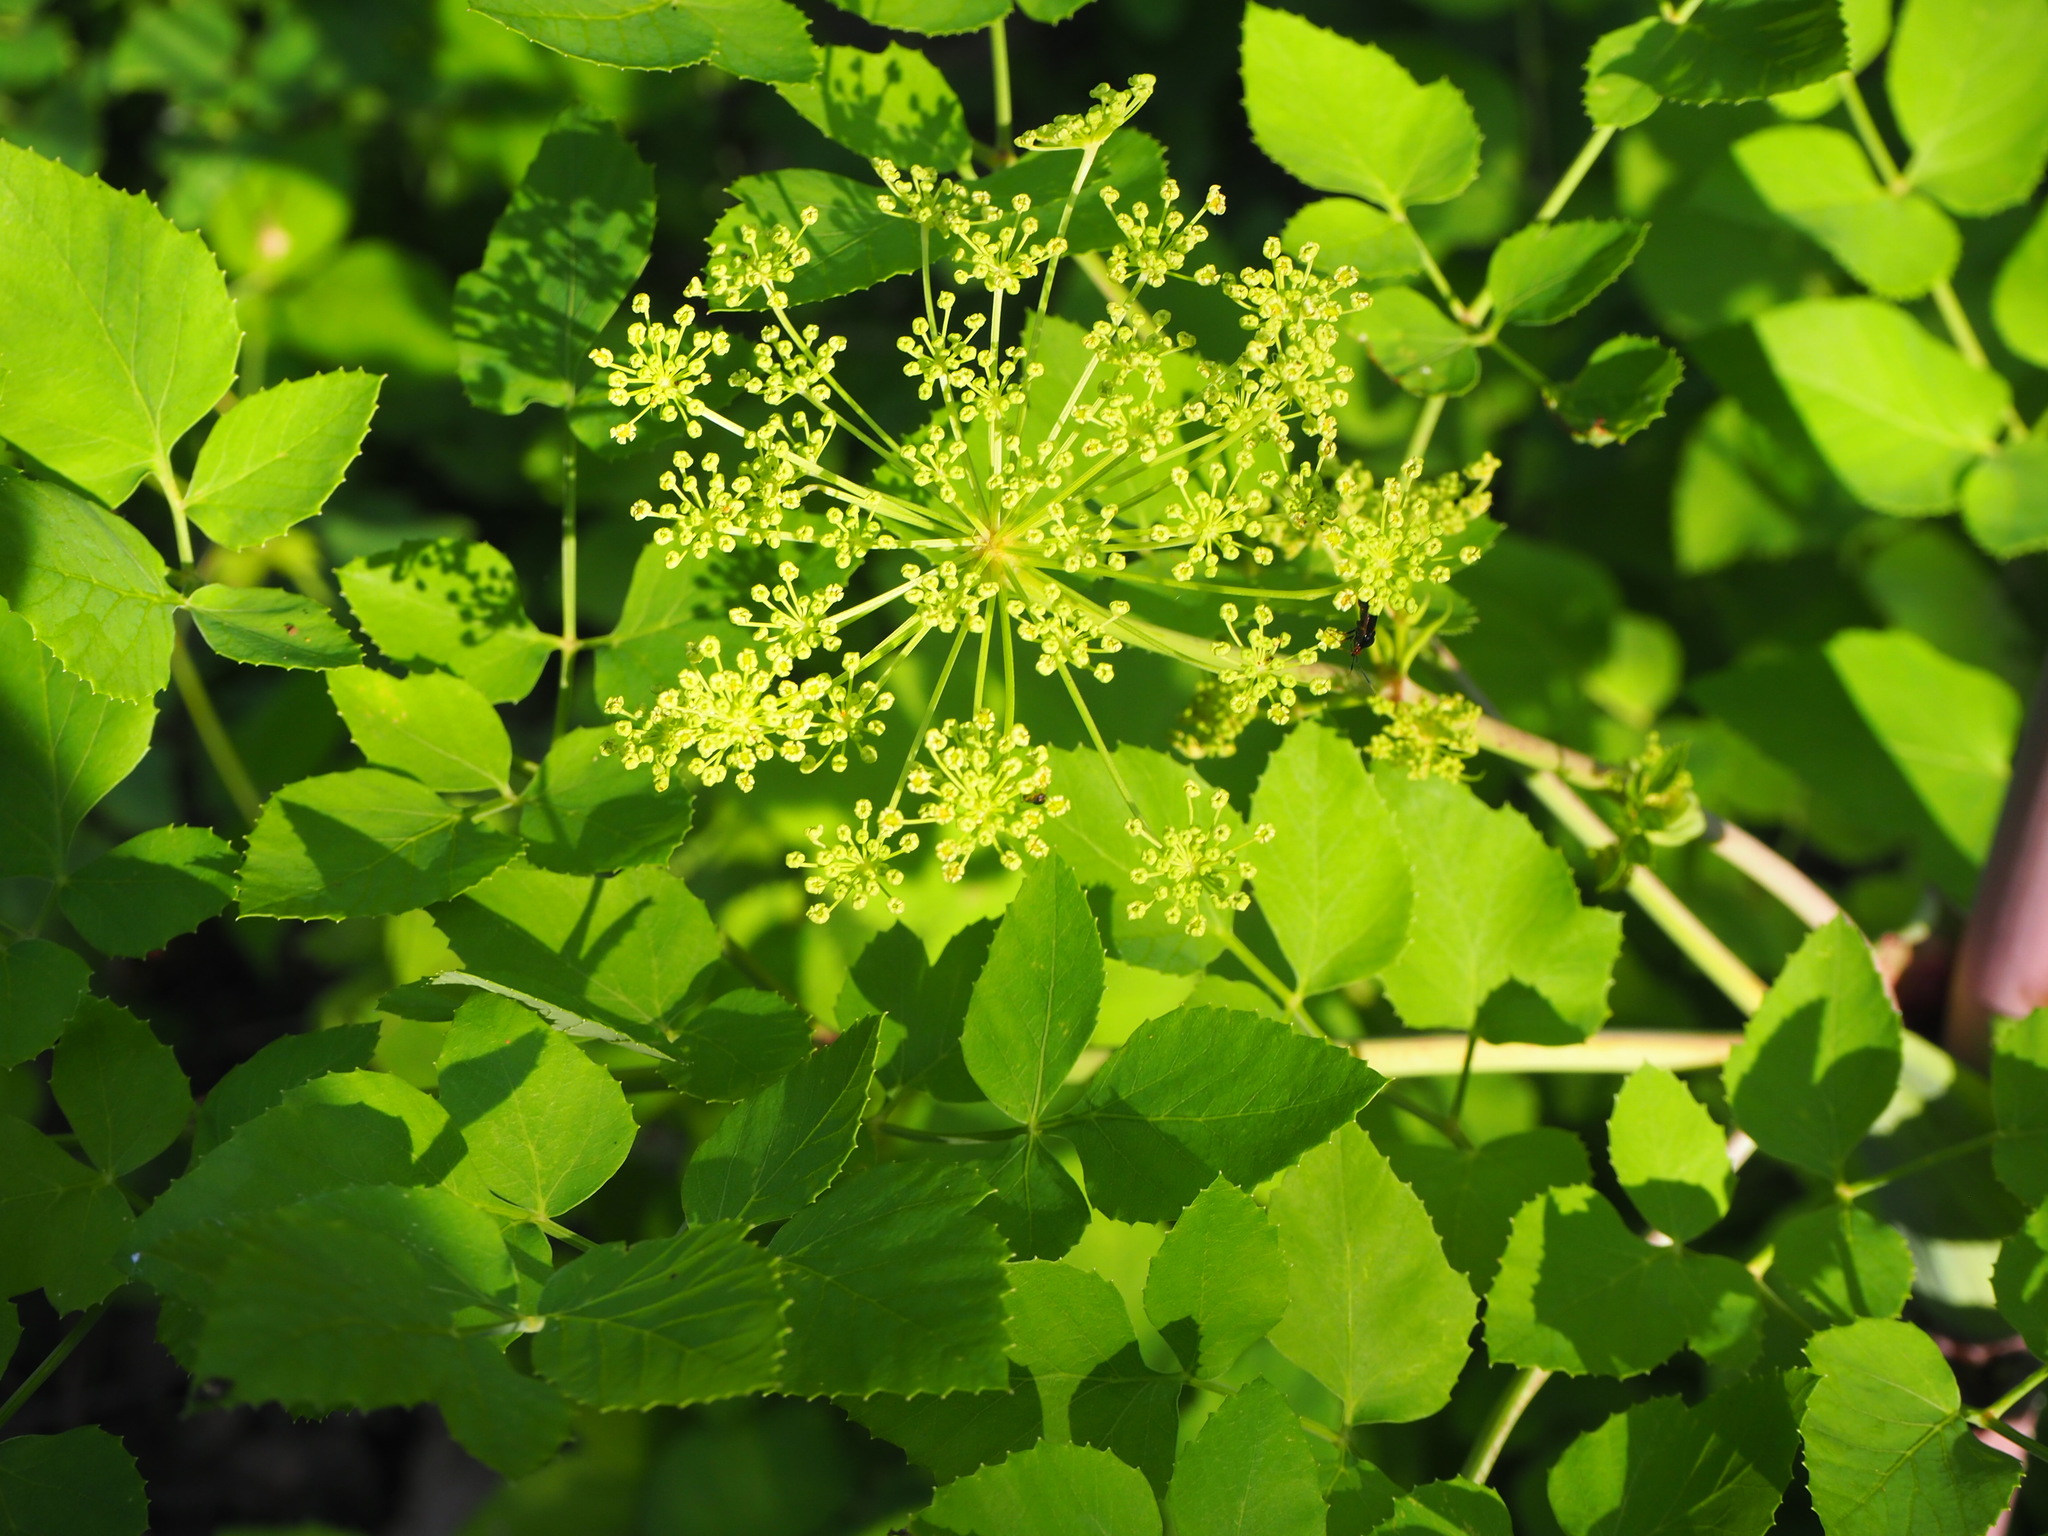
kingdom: Plantae
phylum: Tracheophyta
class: Magnoliopsida
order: Apiales
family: Apiaceae
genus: Peucedanum
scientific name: Peucedanum verticillare
